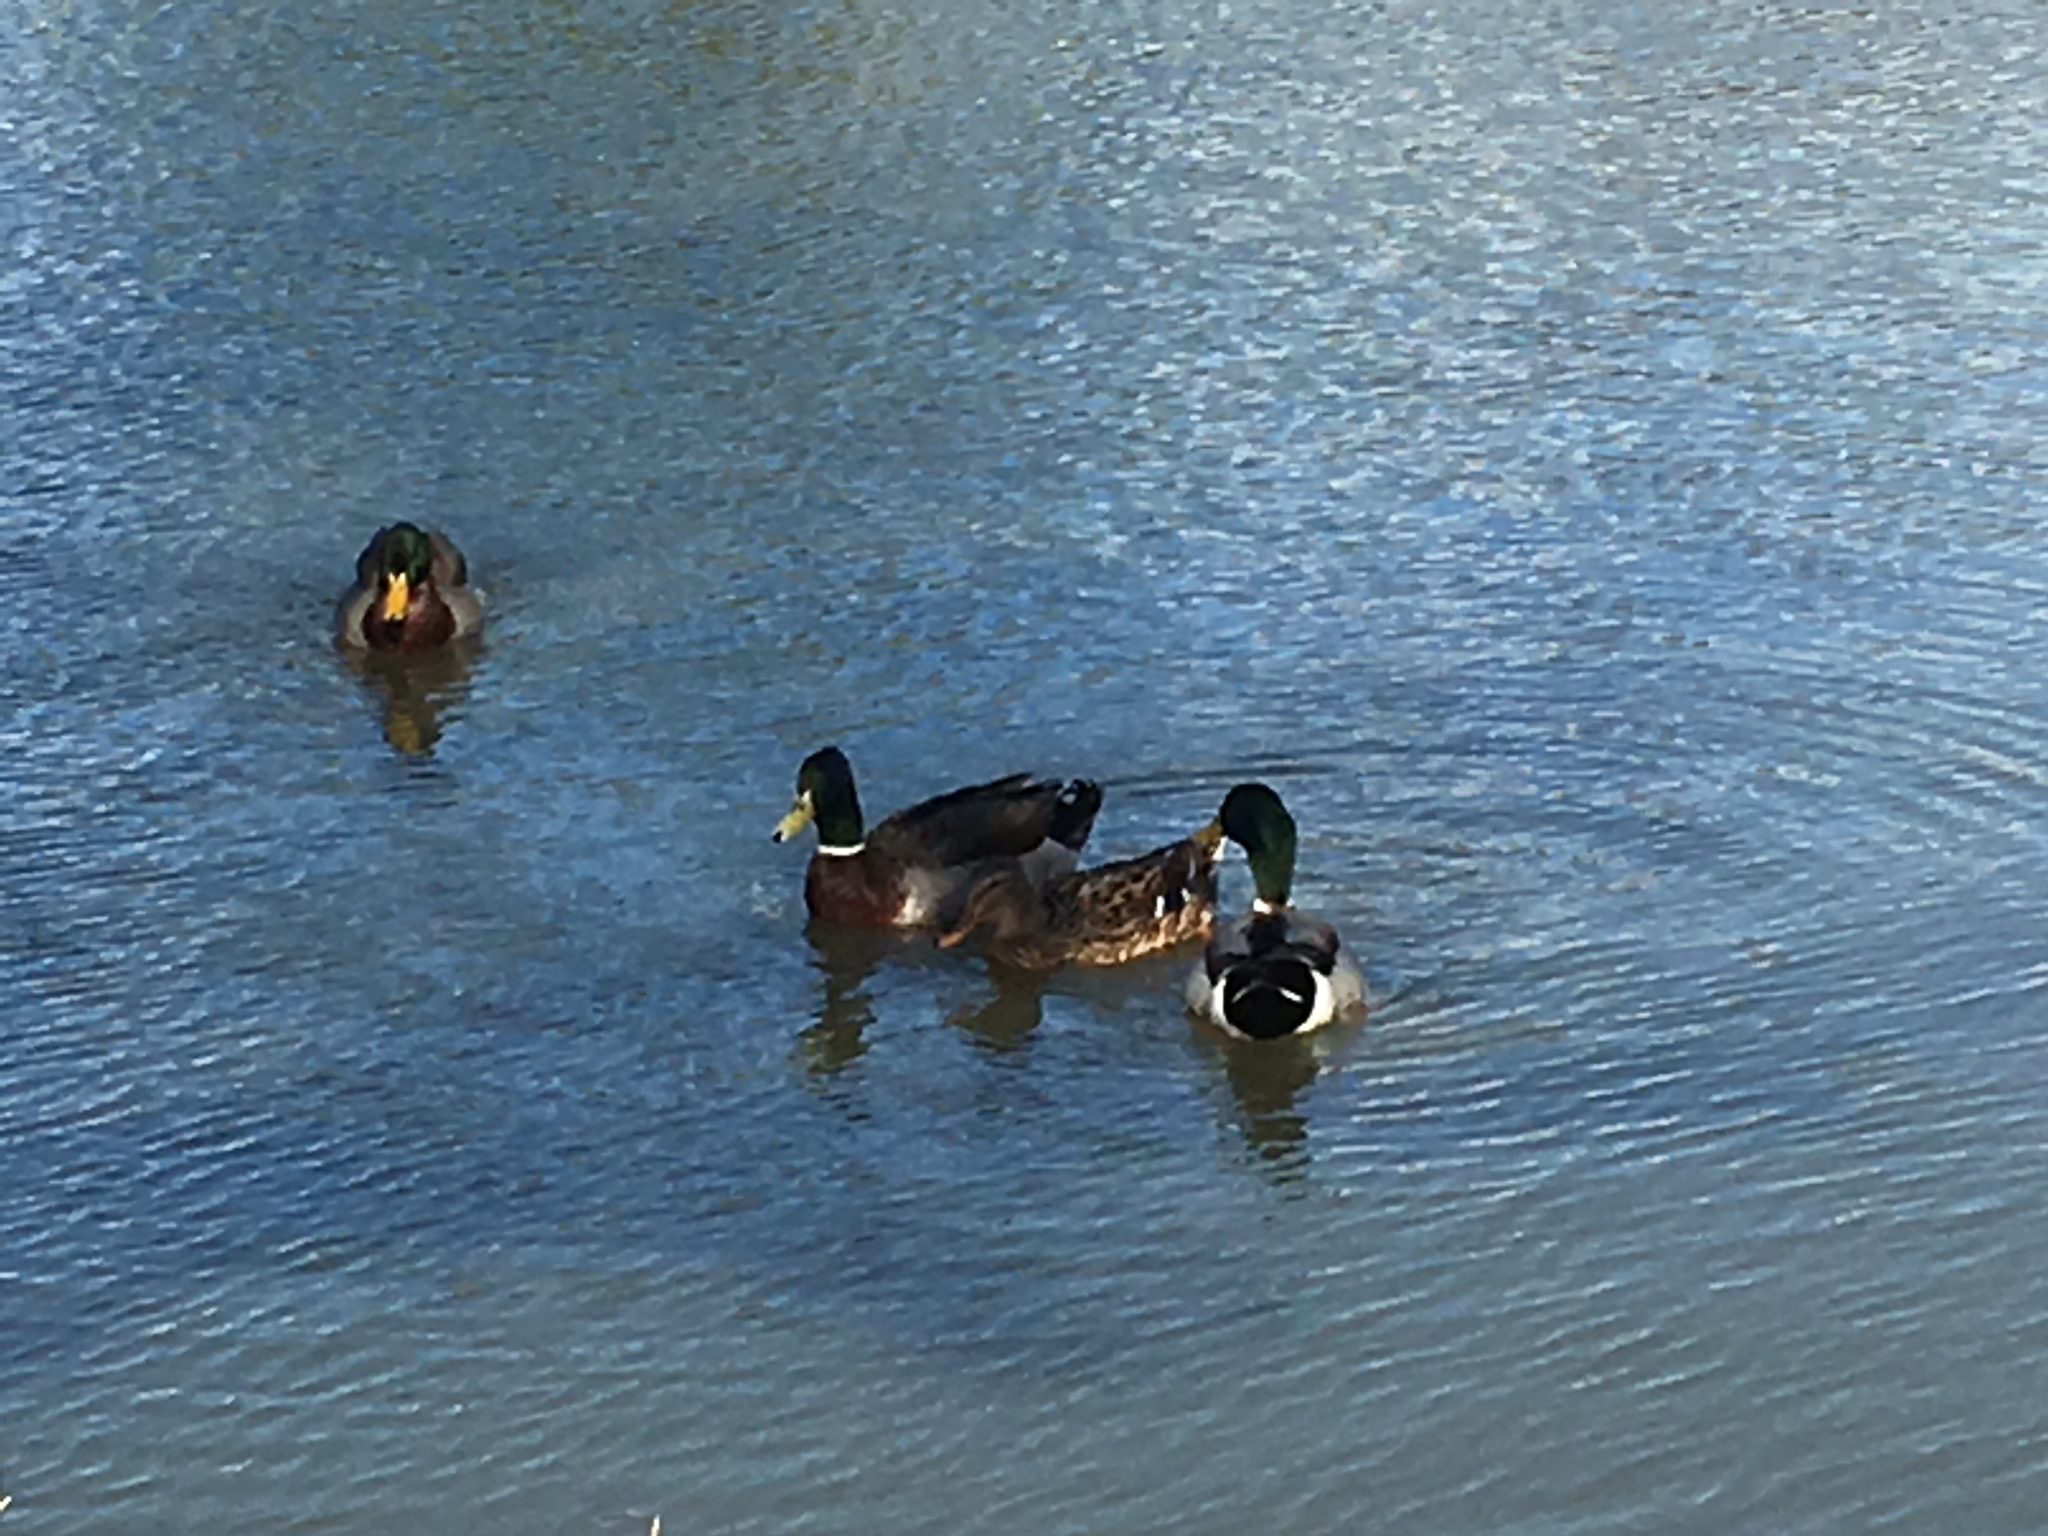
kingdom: Animalia
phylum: Chordata
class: Aves
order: Anseriformes
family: Anatidae
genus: Anas
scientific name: Anas platyrhynchos
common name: Mallard
